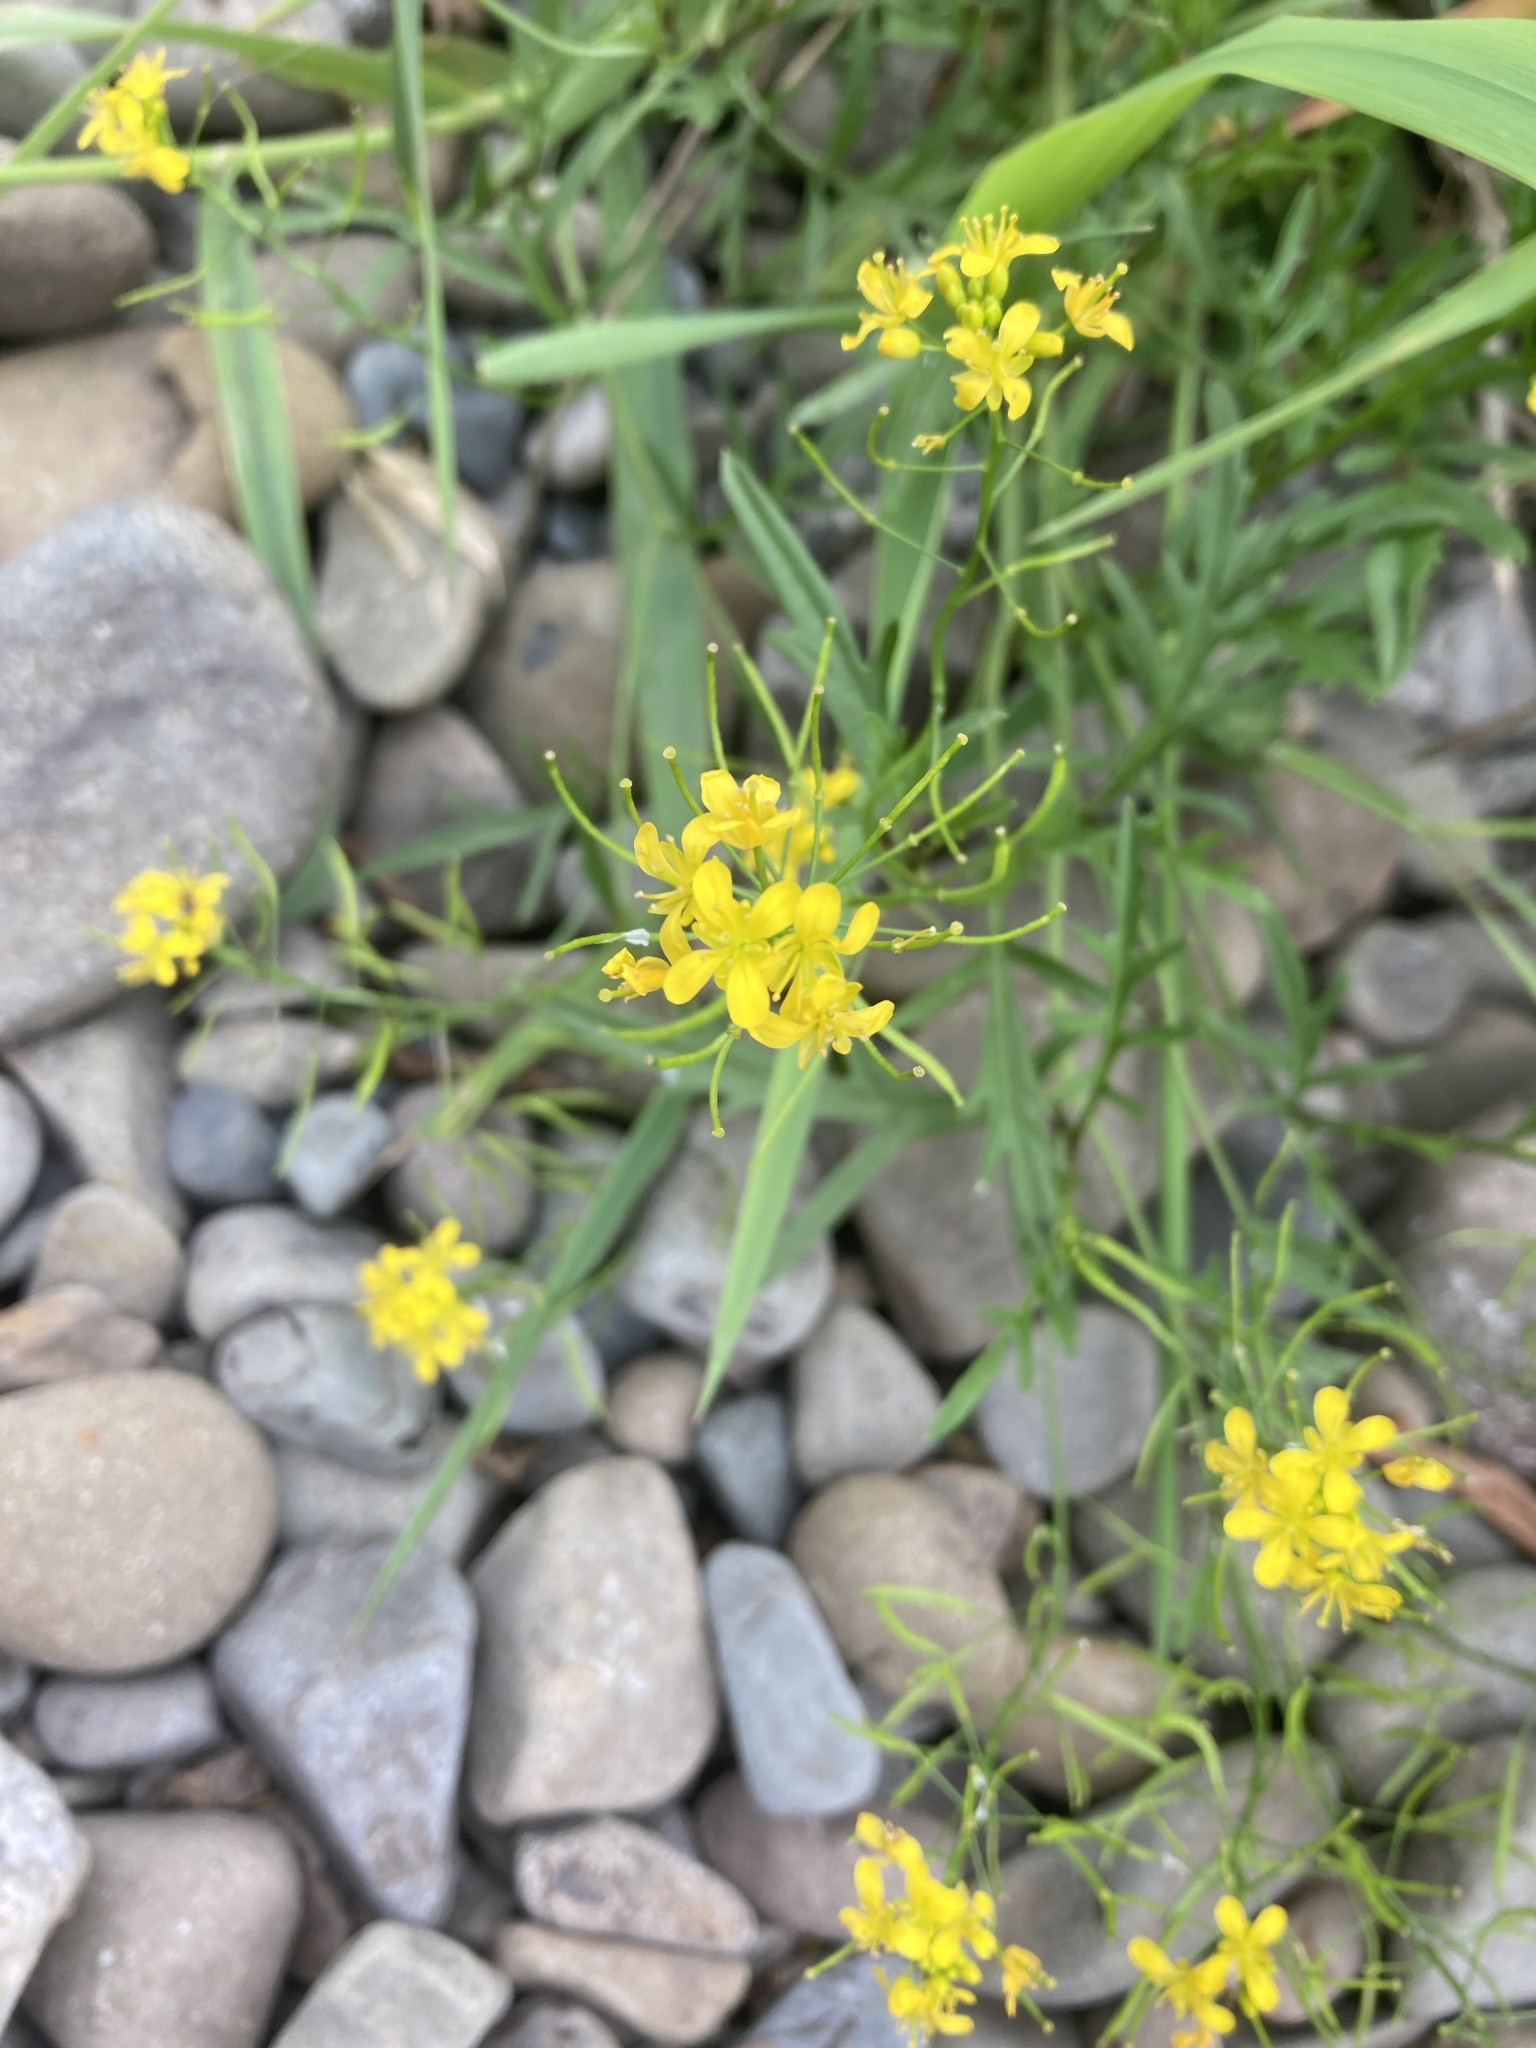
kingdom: Plantae
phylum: Tracheophyta
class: Magnoliopsida
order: Brassicales
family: Brassicaceae
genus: Rorippa
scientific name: Rorippa sylvestris
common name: Creeping yellowcress
